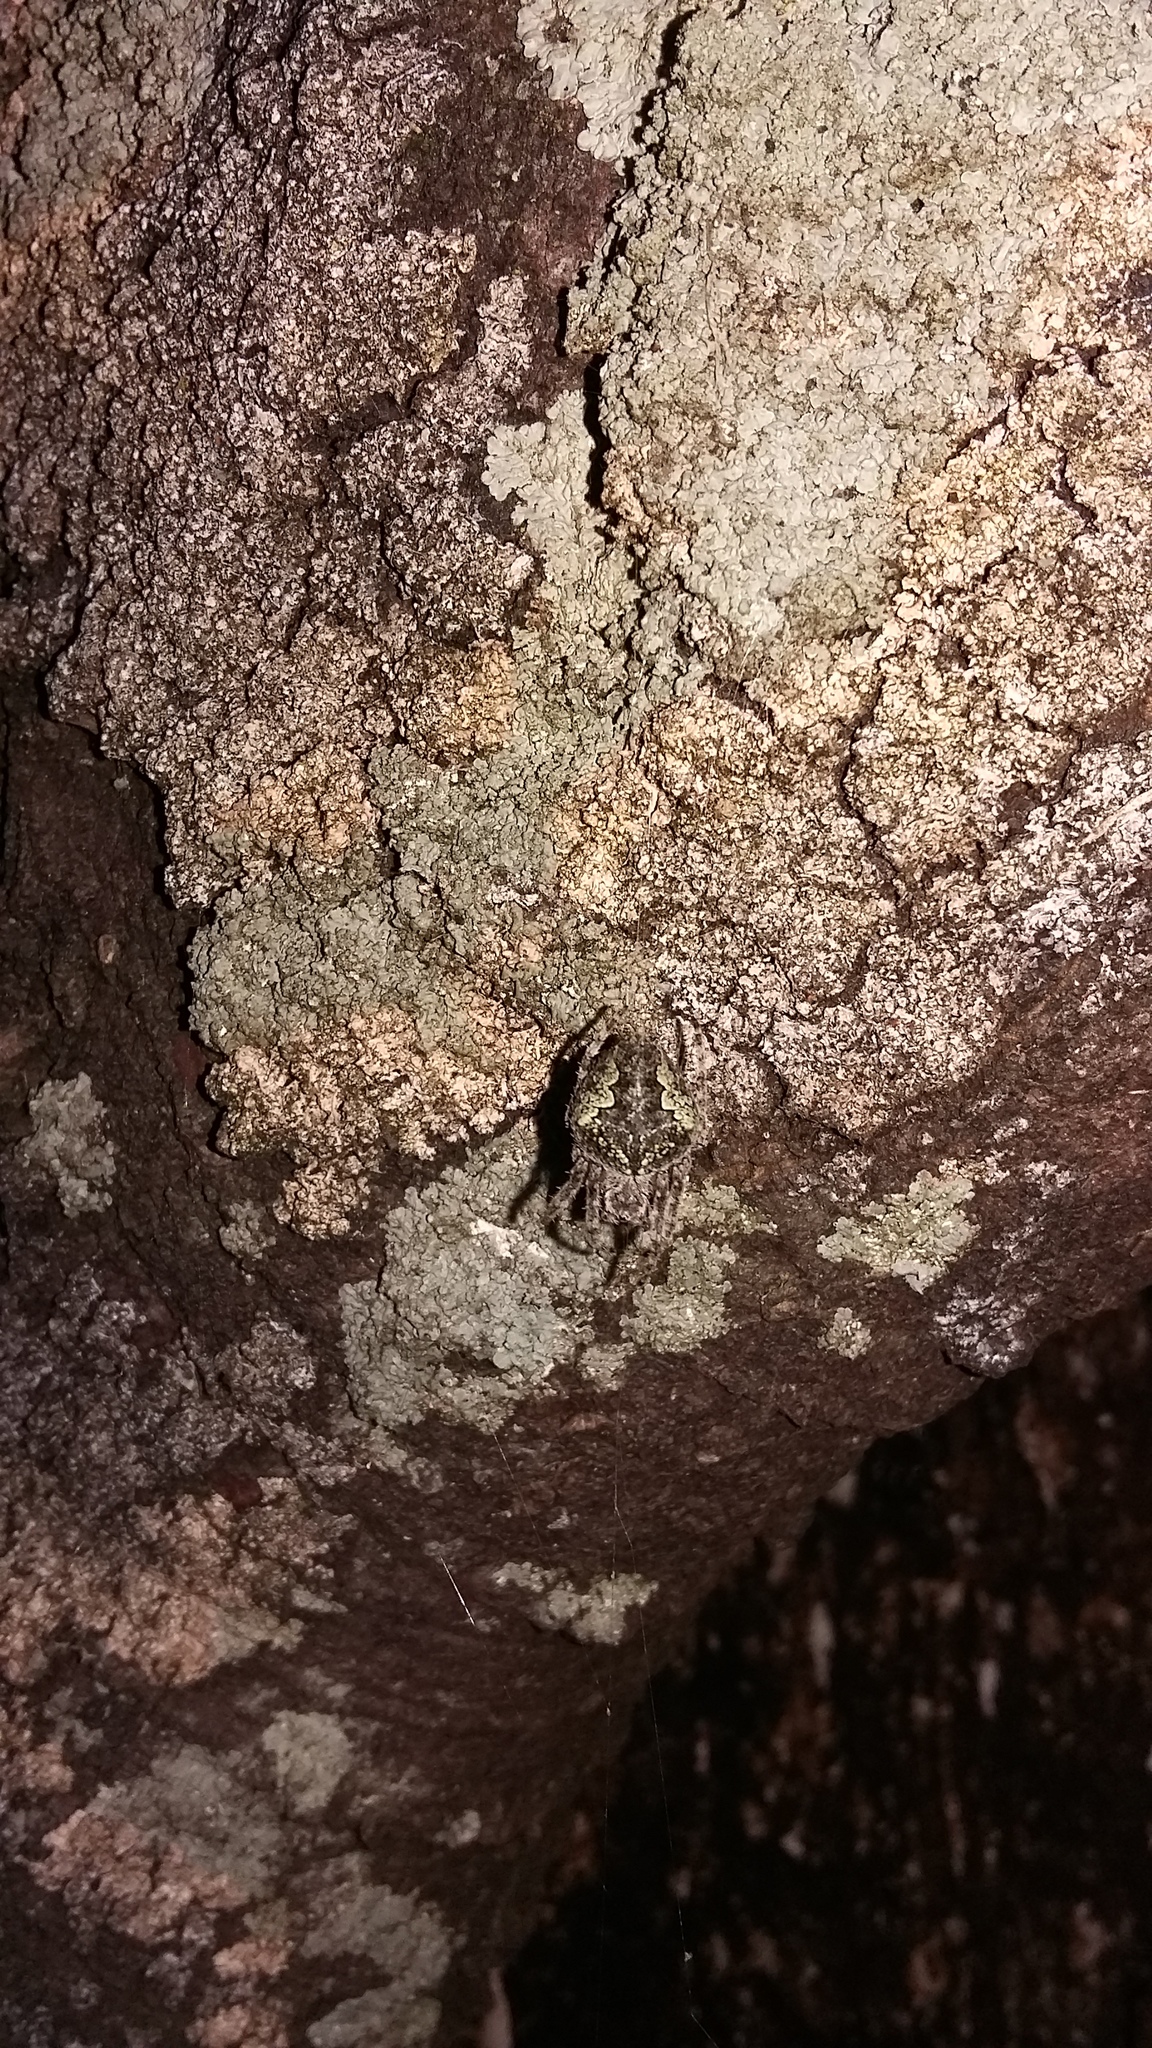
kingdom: Animalia
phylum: Arthropoda
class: Arachnida
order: Araneae
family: Araneidae
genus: Eriophora
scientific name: Eriophora pustulosa
